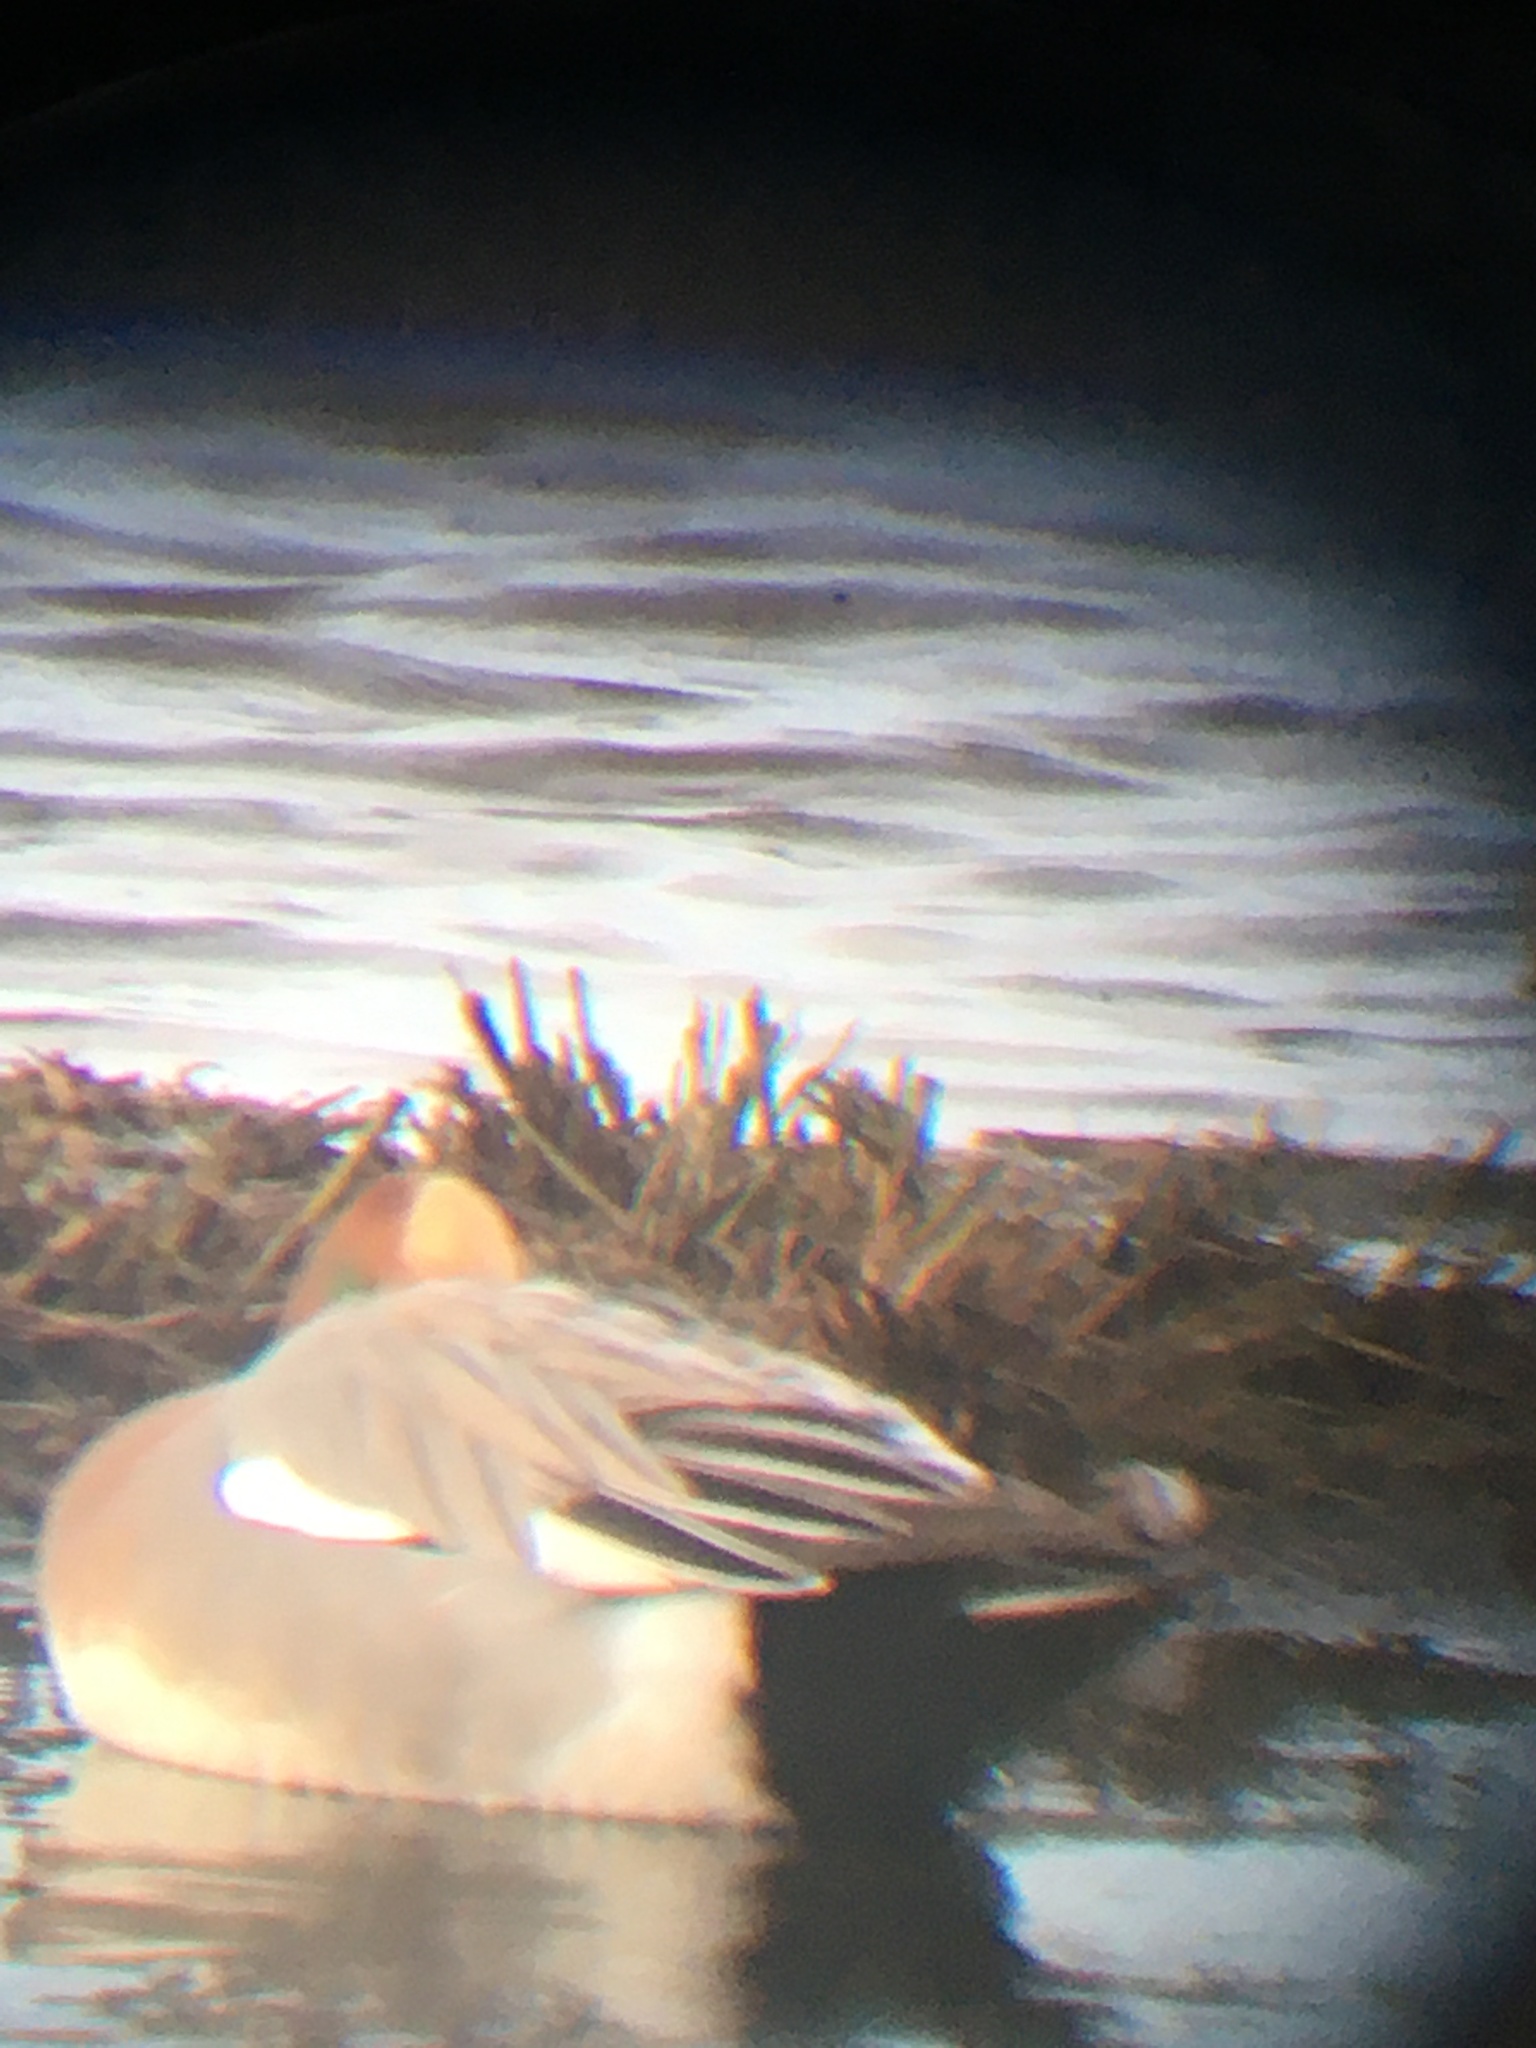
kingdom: Animalia
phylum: Chordata
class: Aves
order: Anseriformes
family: Anatidae
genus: Mareca
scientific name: Mareca penelope
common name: Eurasian wigeon
